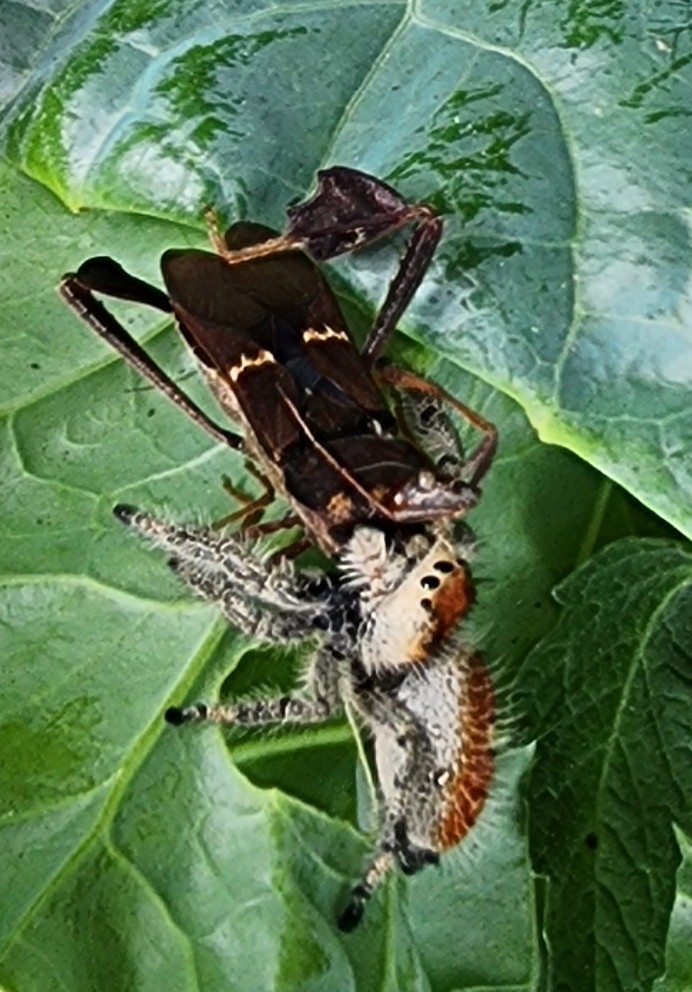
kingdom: Animalia
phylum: Arthropoda
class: Arachnida
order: Araneae
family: Salticidae
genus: Phidippus
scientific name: Phidippus regius
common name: Regal jumper
